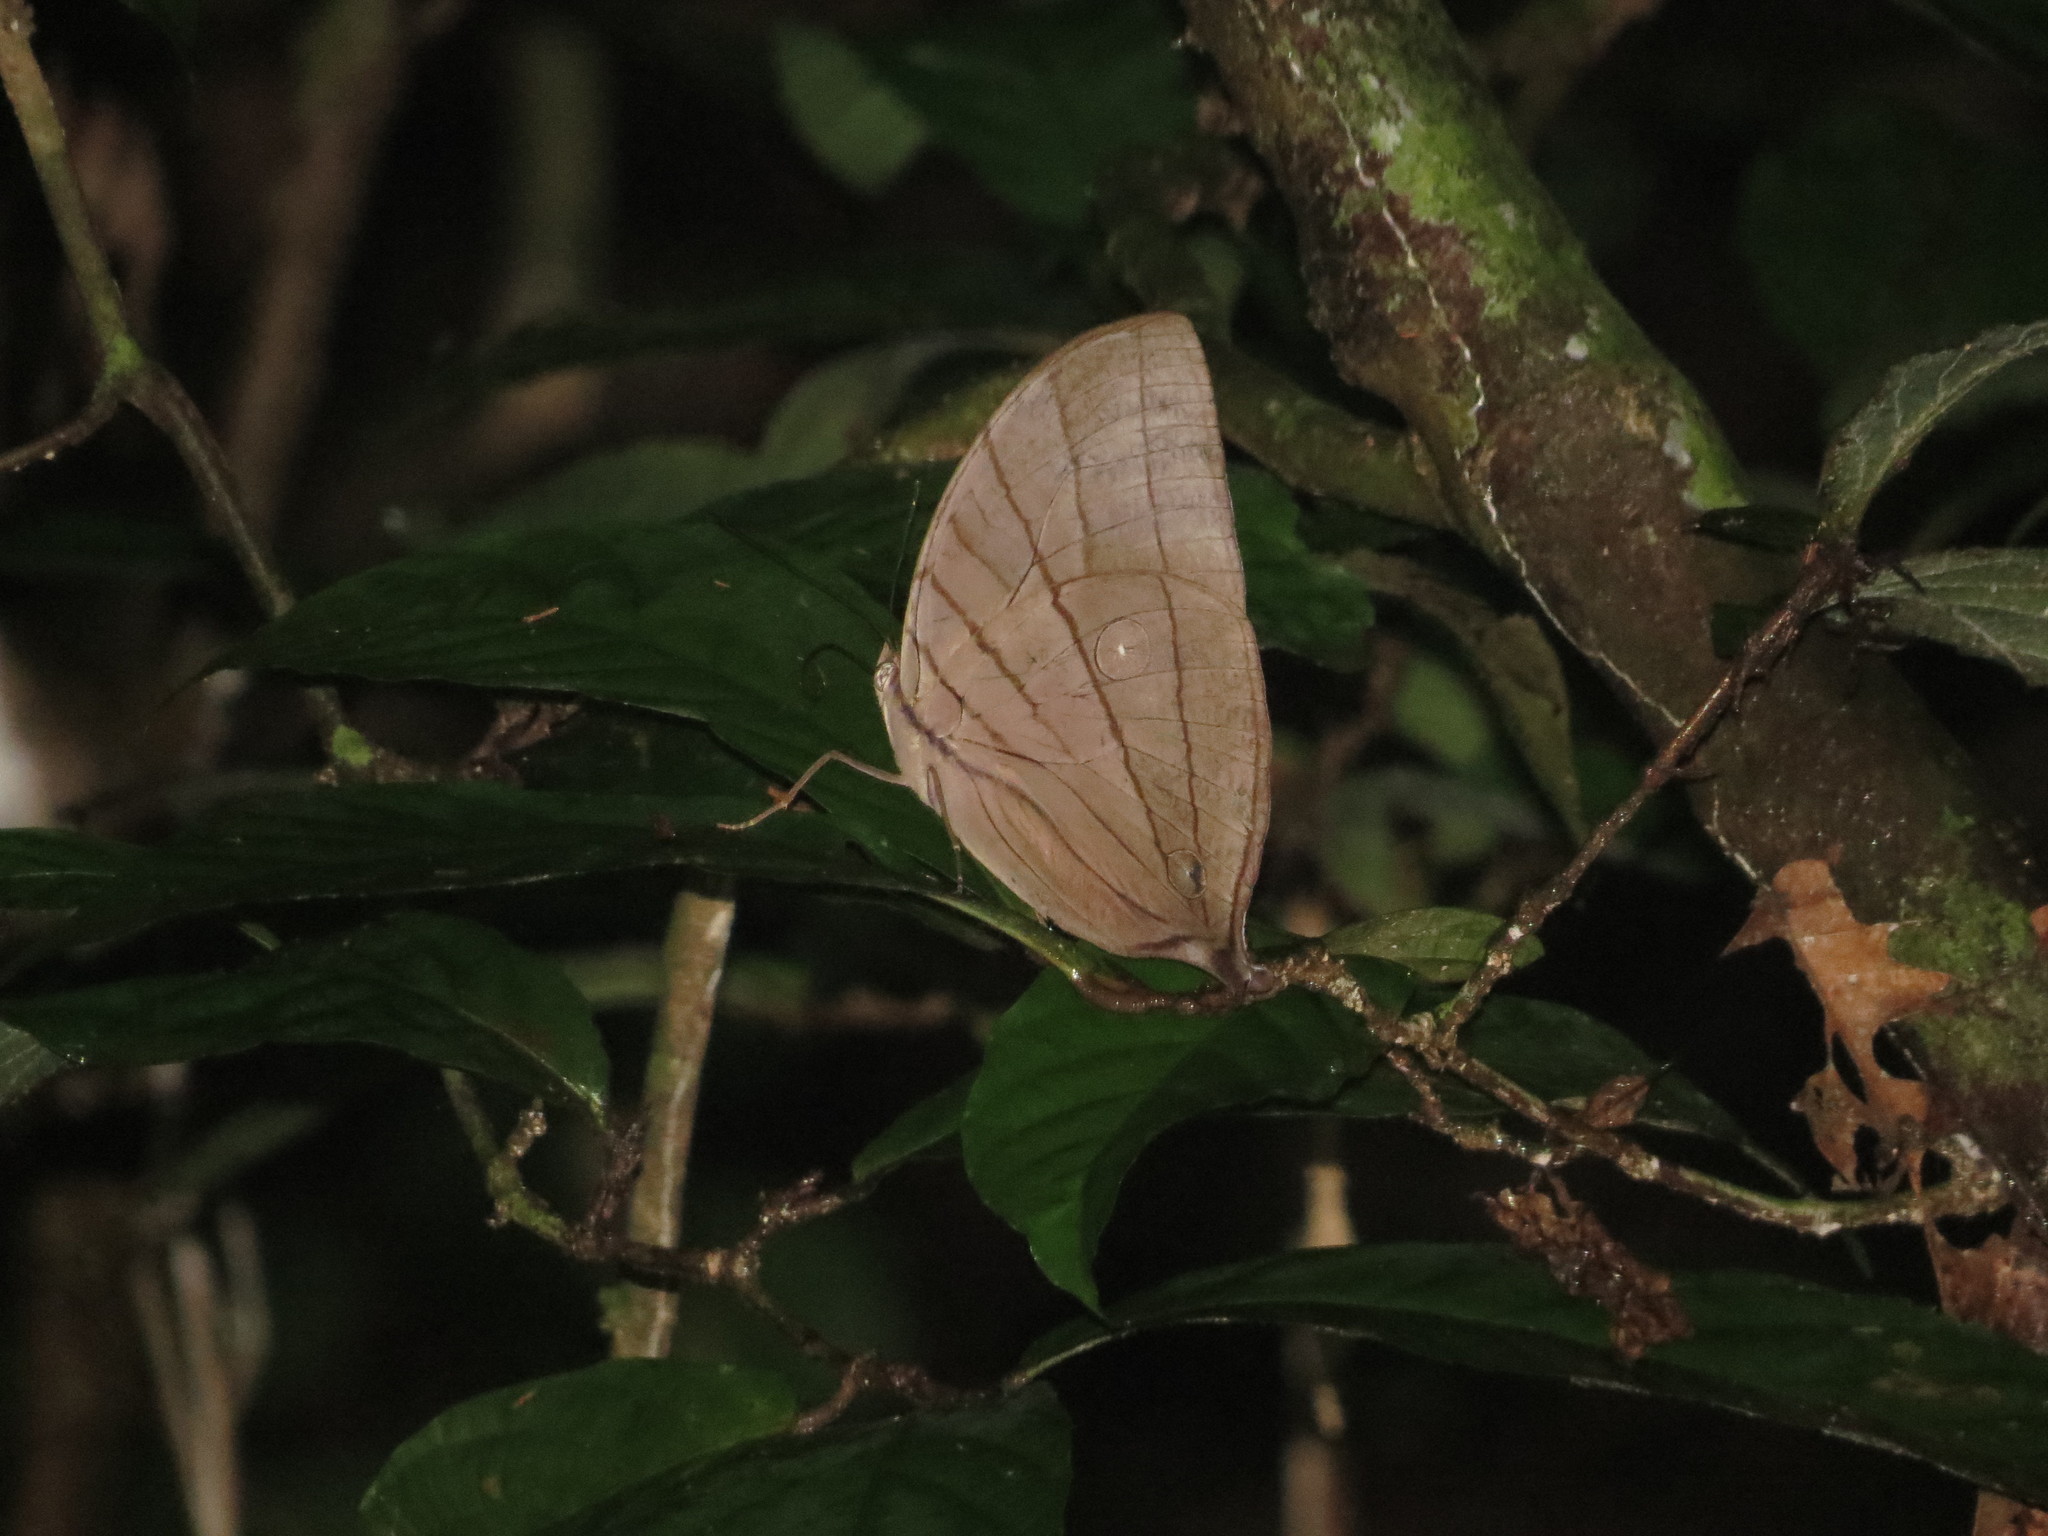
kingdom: Animalia
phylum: Arthropoda
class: Insecta
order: Lepidoptera
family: Nymphalidae
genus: Amathuxidia
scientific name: Amathuxidia amythaon
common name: Koh-i-noor
